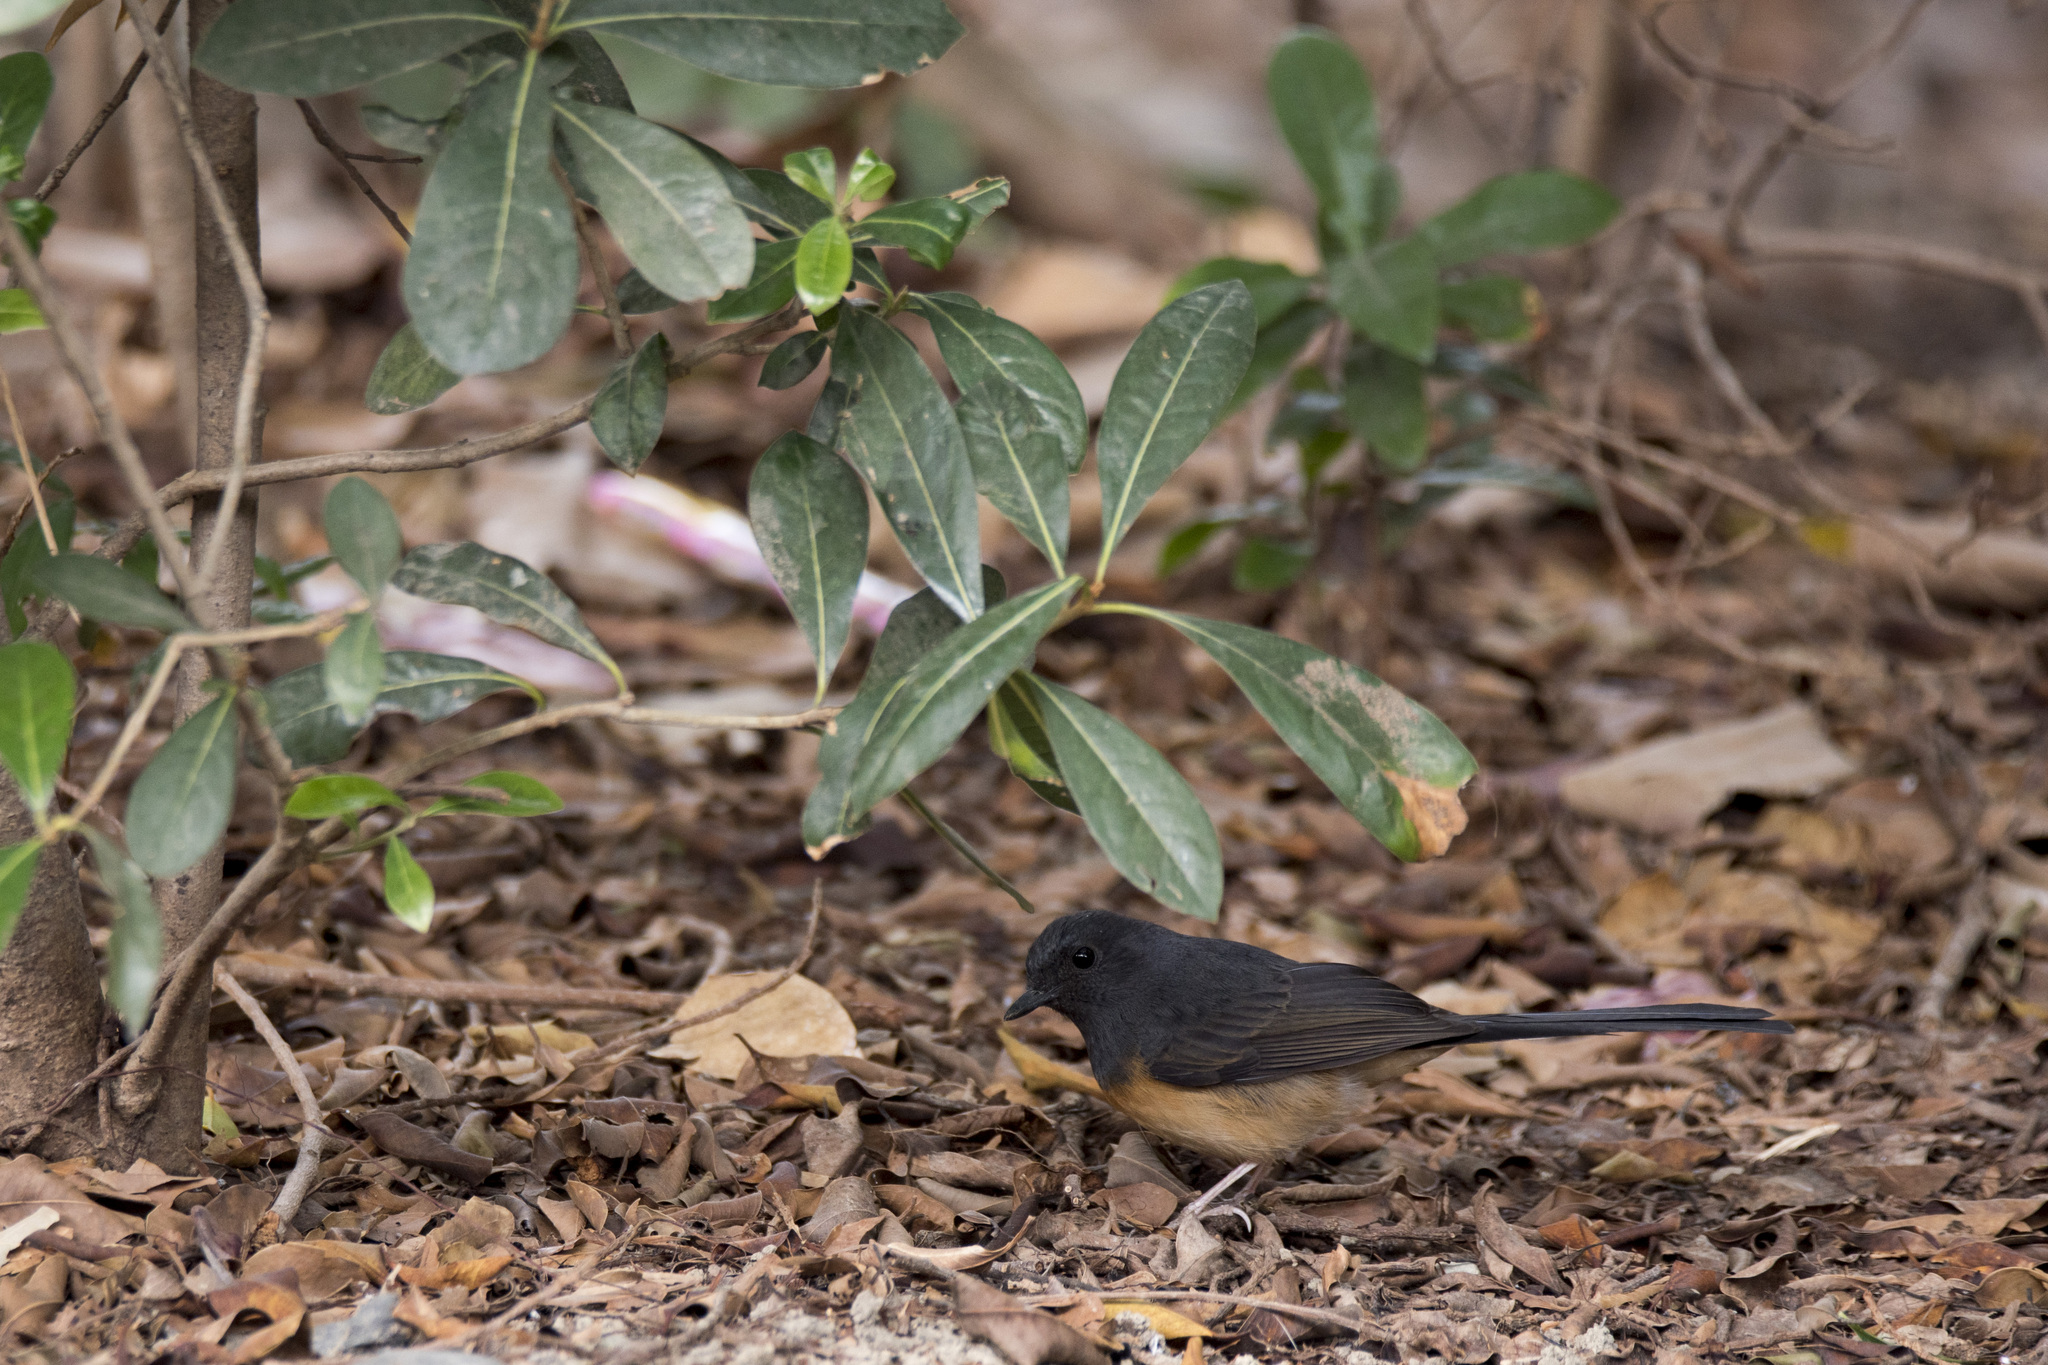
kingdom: Animalia
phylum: Chordata
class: Aves
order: Passeriformes
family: Muscicapidae
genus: Copsychus
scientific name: Copsychus malabaricus
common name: White-rumped shama
